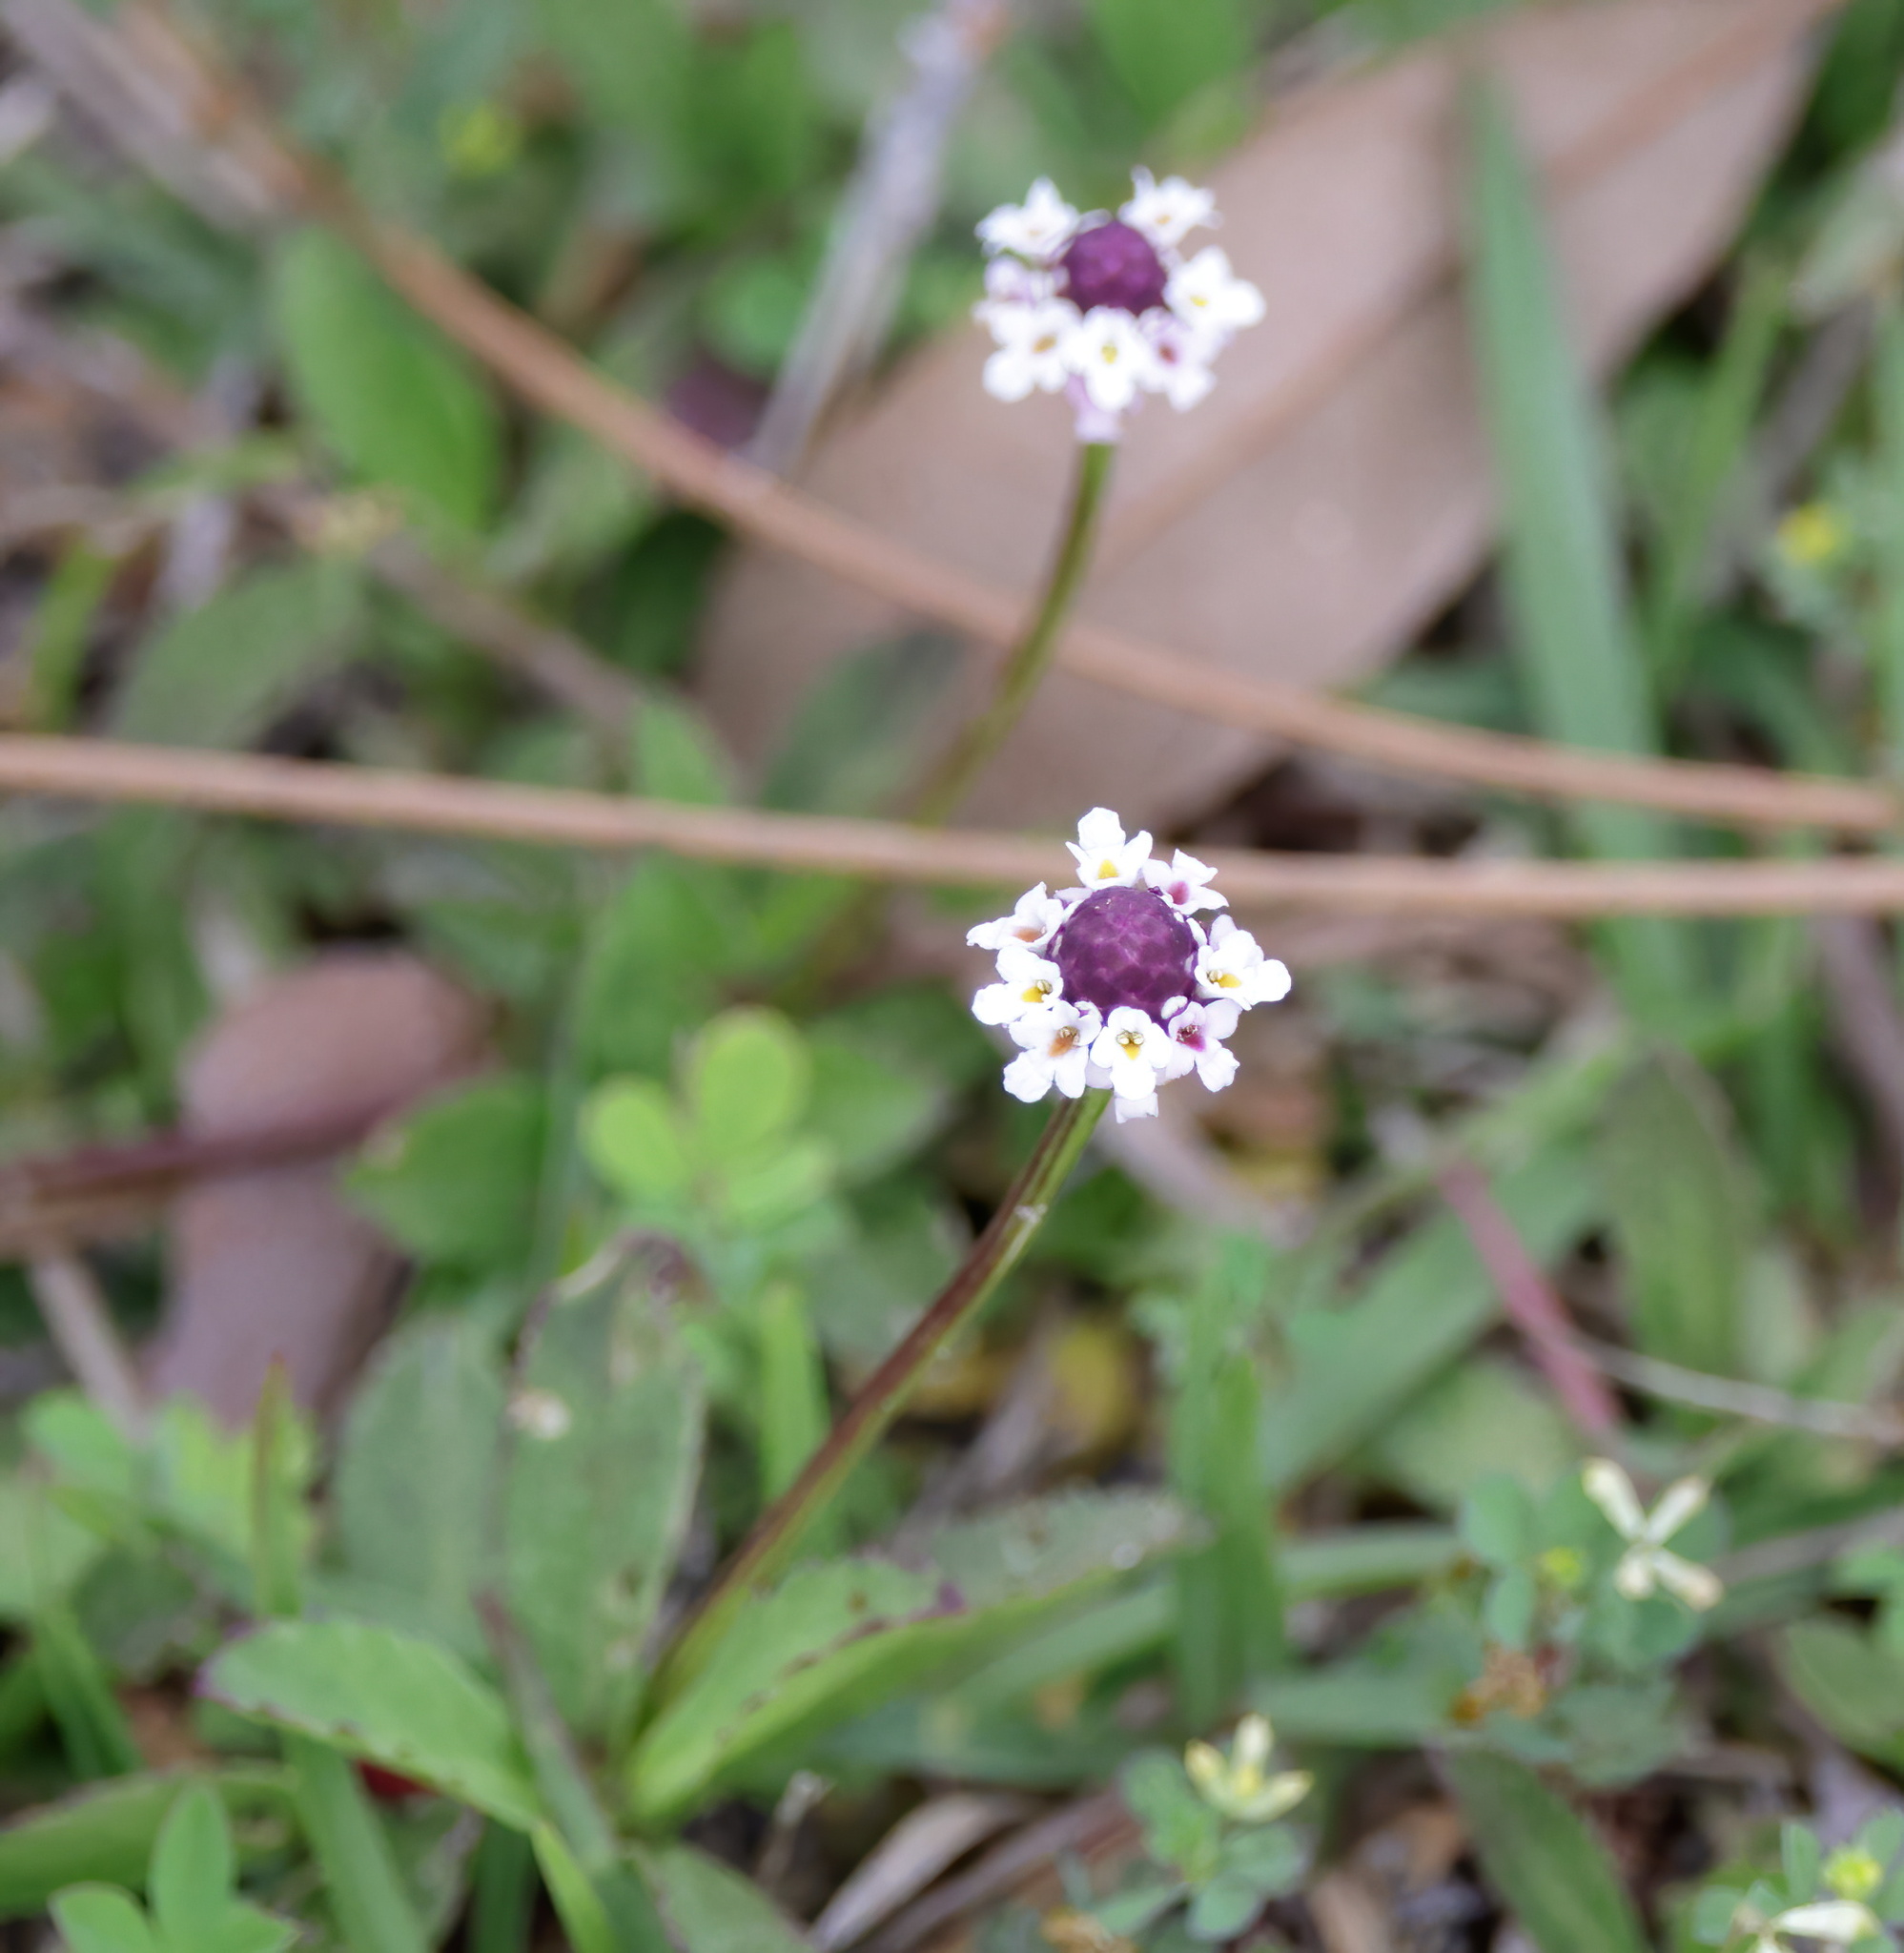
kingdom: Plantae
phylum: Tracheophyta
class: Magnoliopsida
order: Lamiales
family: Verbenaceae
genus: Phyla
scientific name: Phyla nodiflora
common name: Frogfruit
